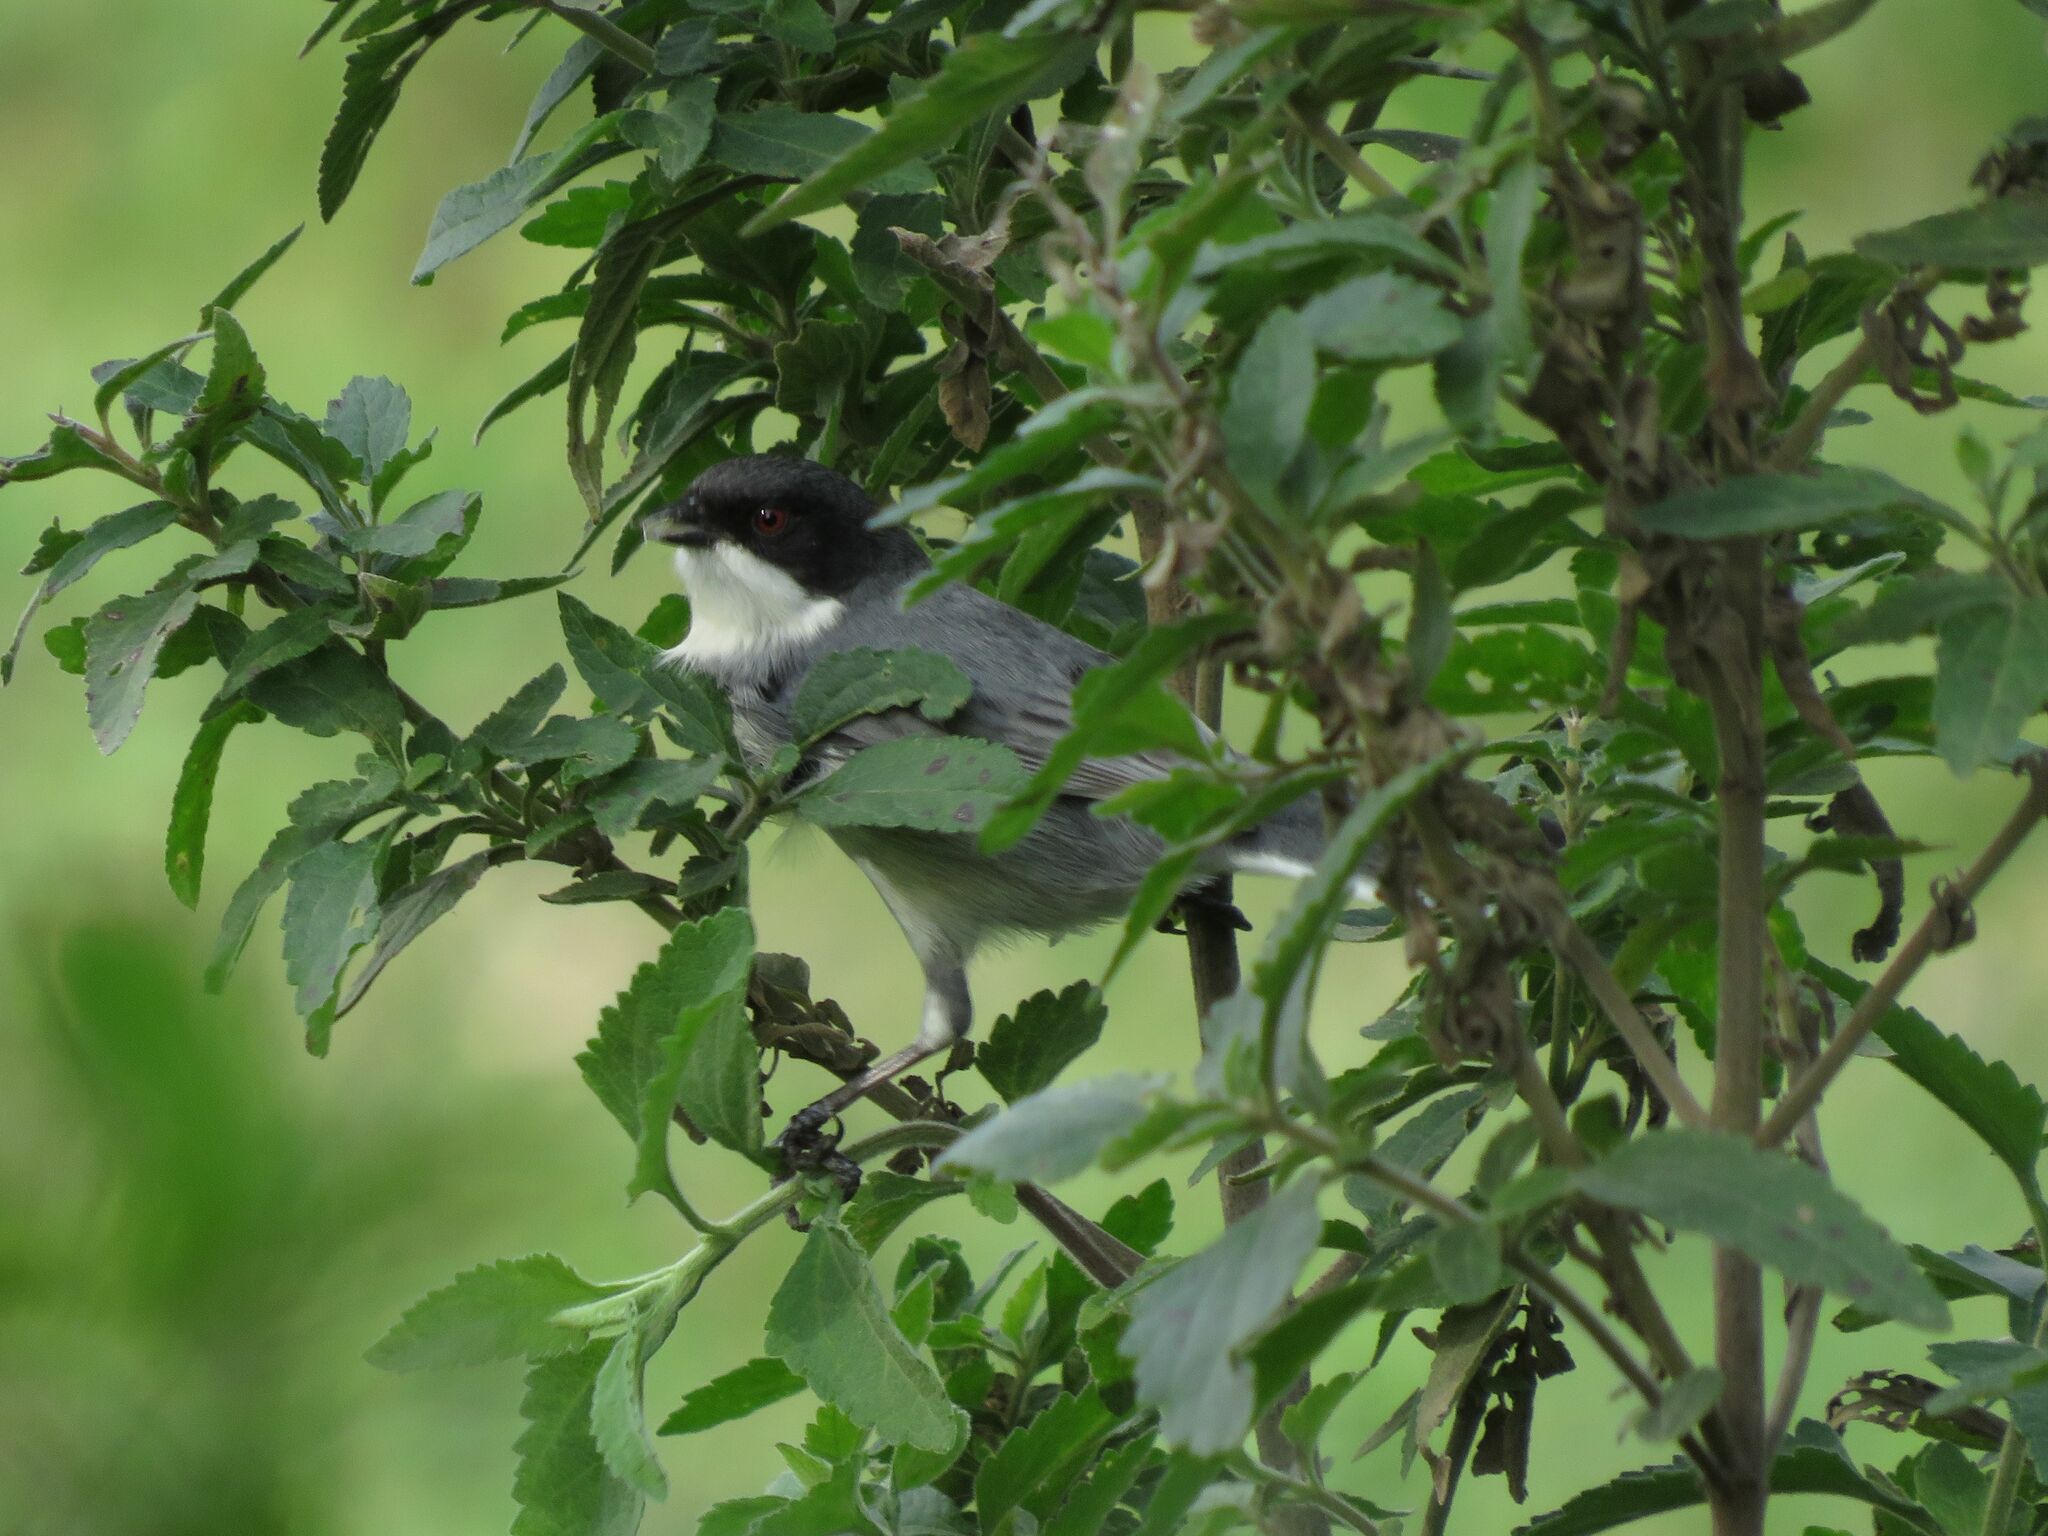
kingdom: Animalia
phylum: Chordata
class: Aves
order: Passeriformes
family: Thraupidae
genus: Microspingus
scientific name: Microspingus melanoleucus
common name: Black-capped warbling-finch
